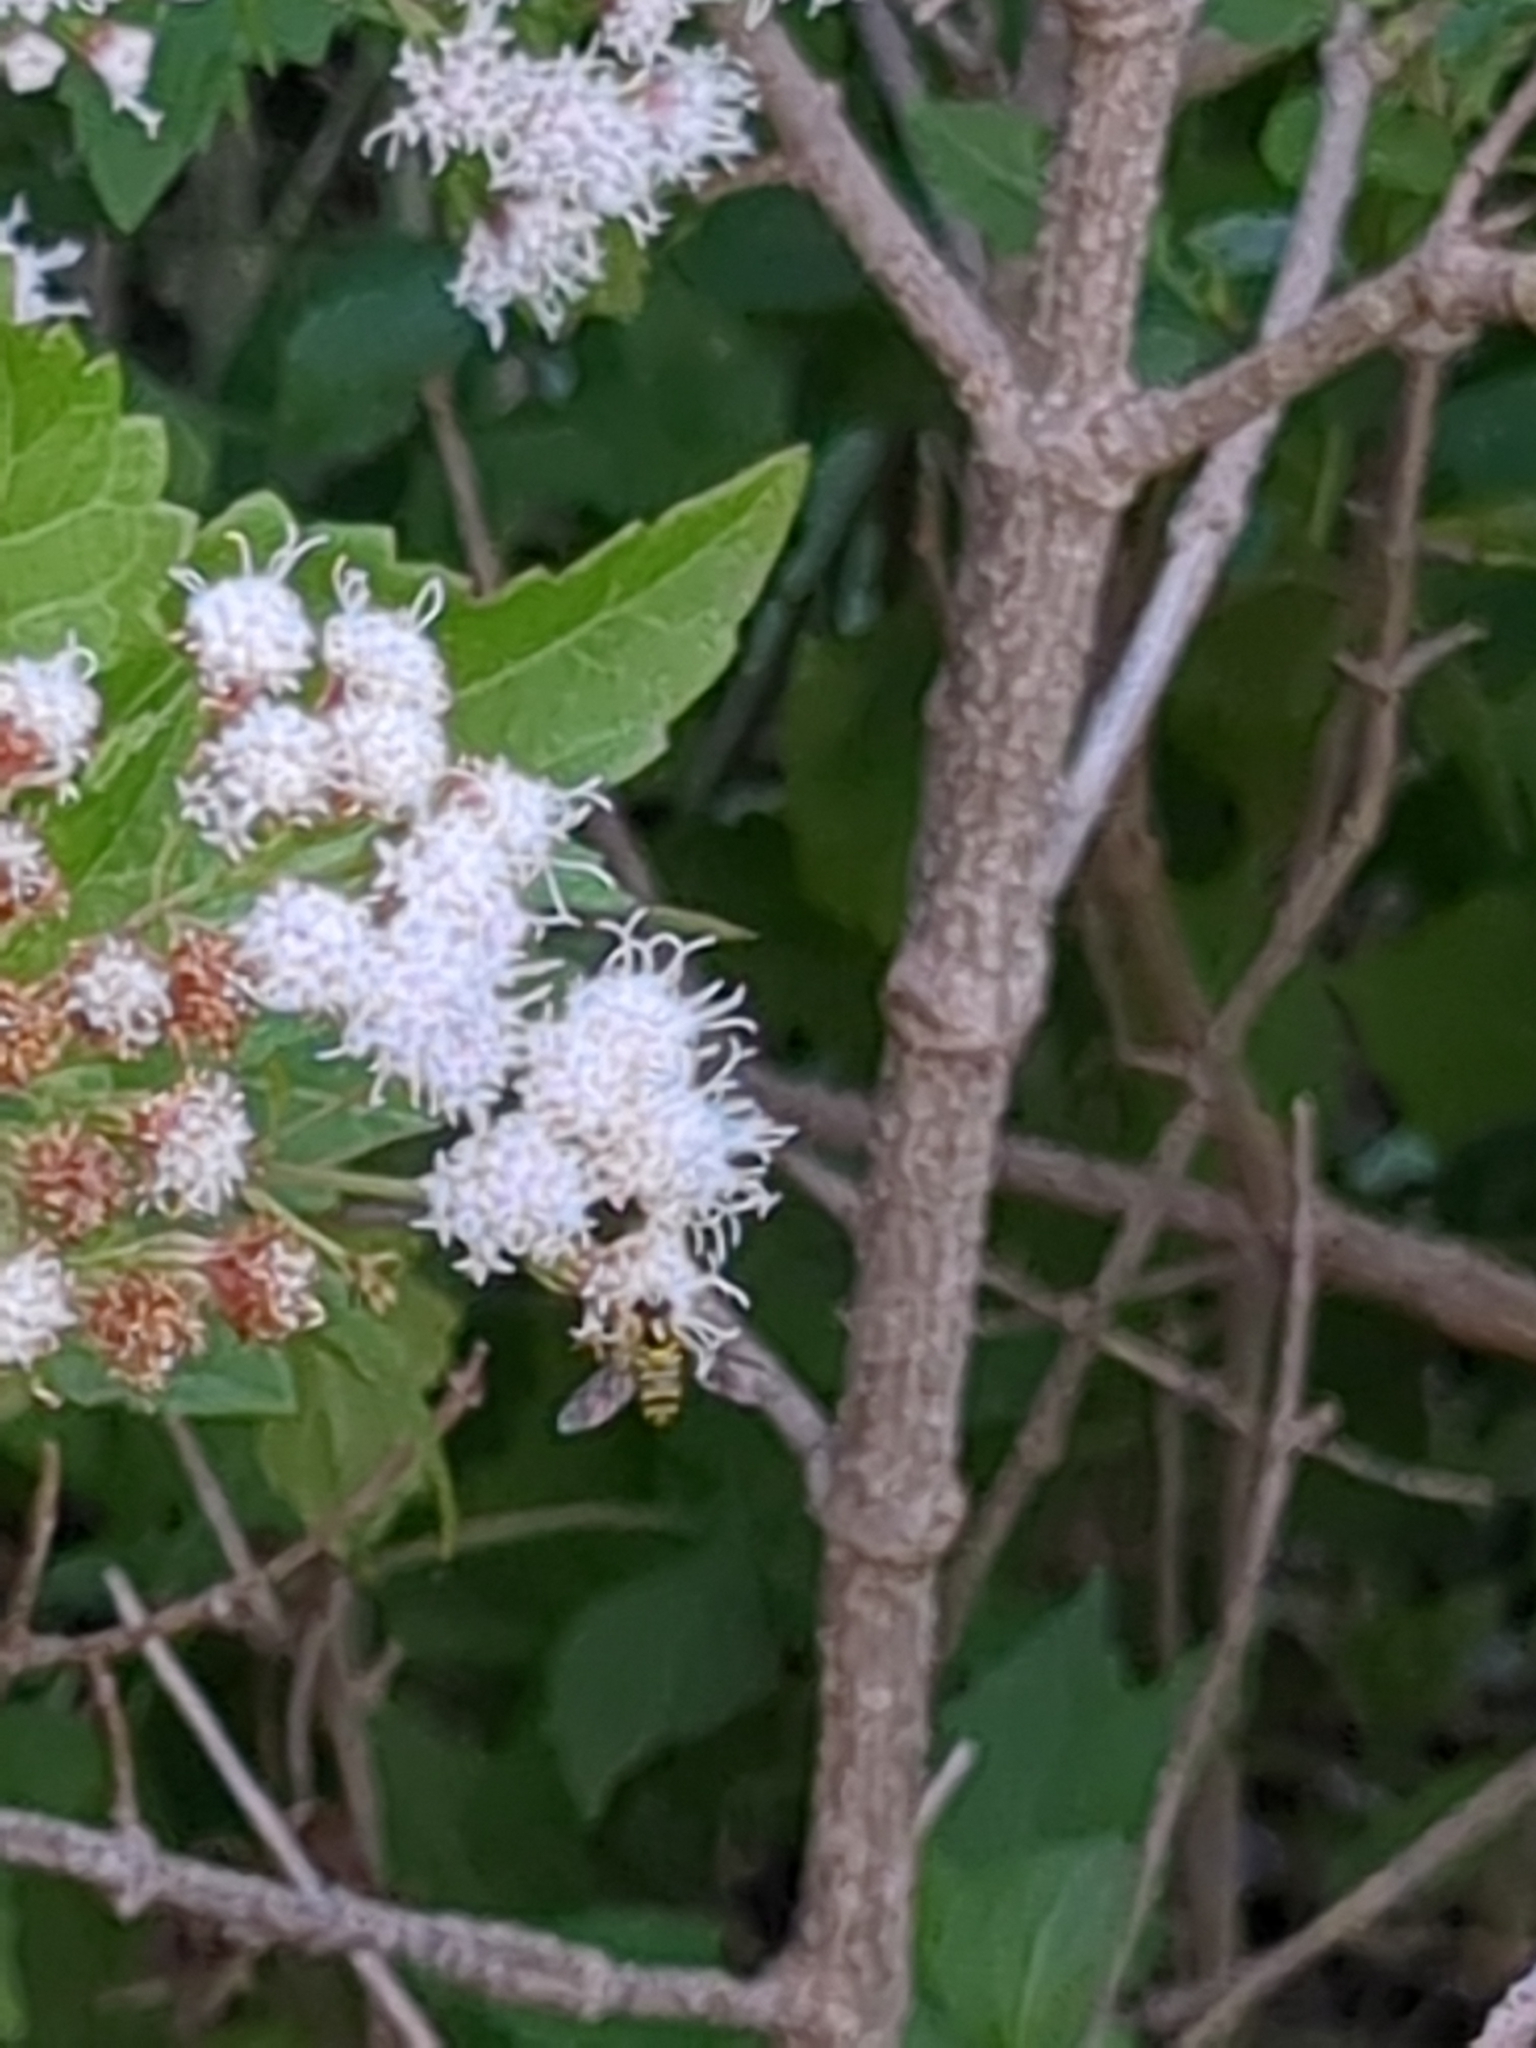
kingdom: Animalia
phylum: Arthropoda
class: Insecta
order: Diptera
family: Syrphidae
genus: Allograpta
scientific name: Allograpta
